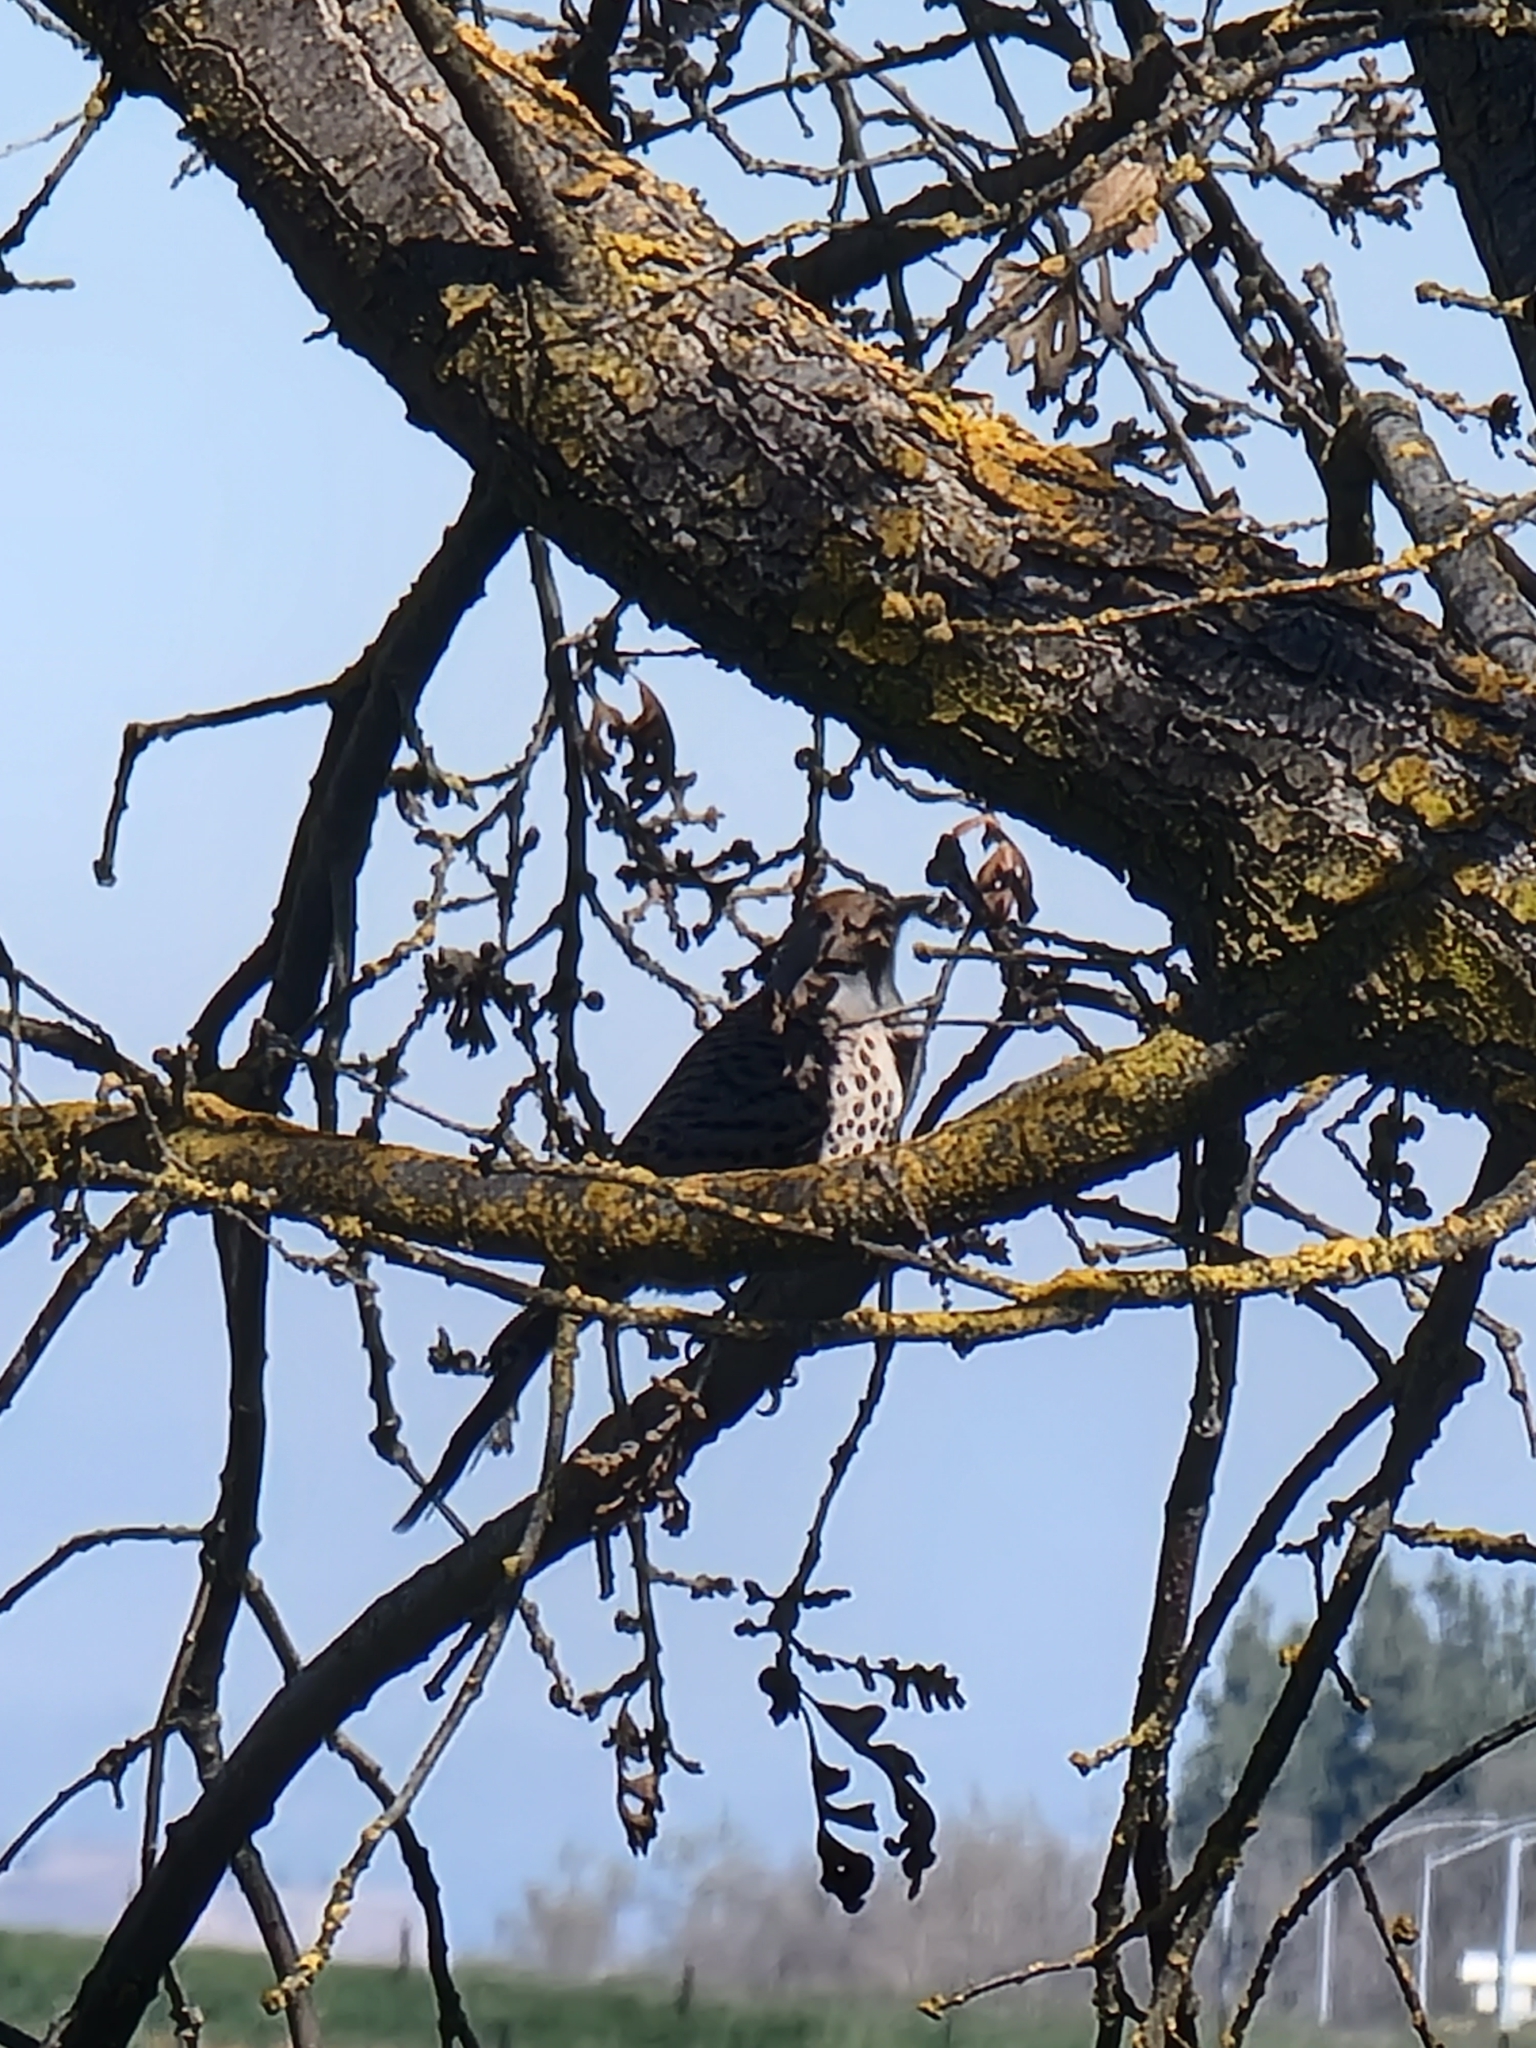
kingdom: Animalia
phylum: Chordata
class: Aves
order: Piciformes
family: Picidae
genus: Colaptes
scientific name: Colaptes auratus
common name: Northern flicker
